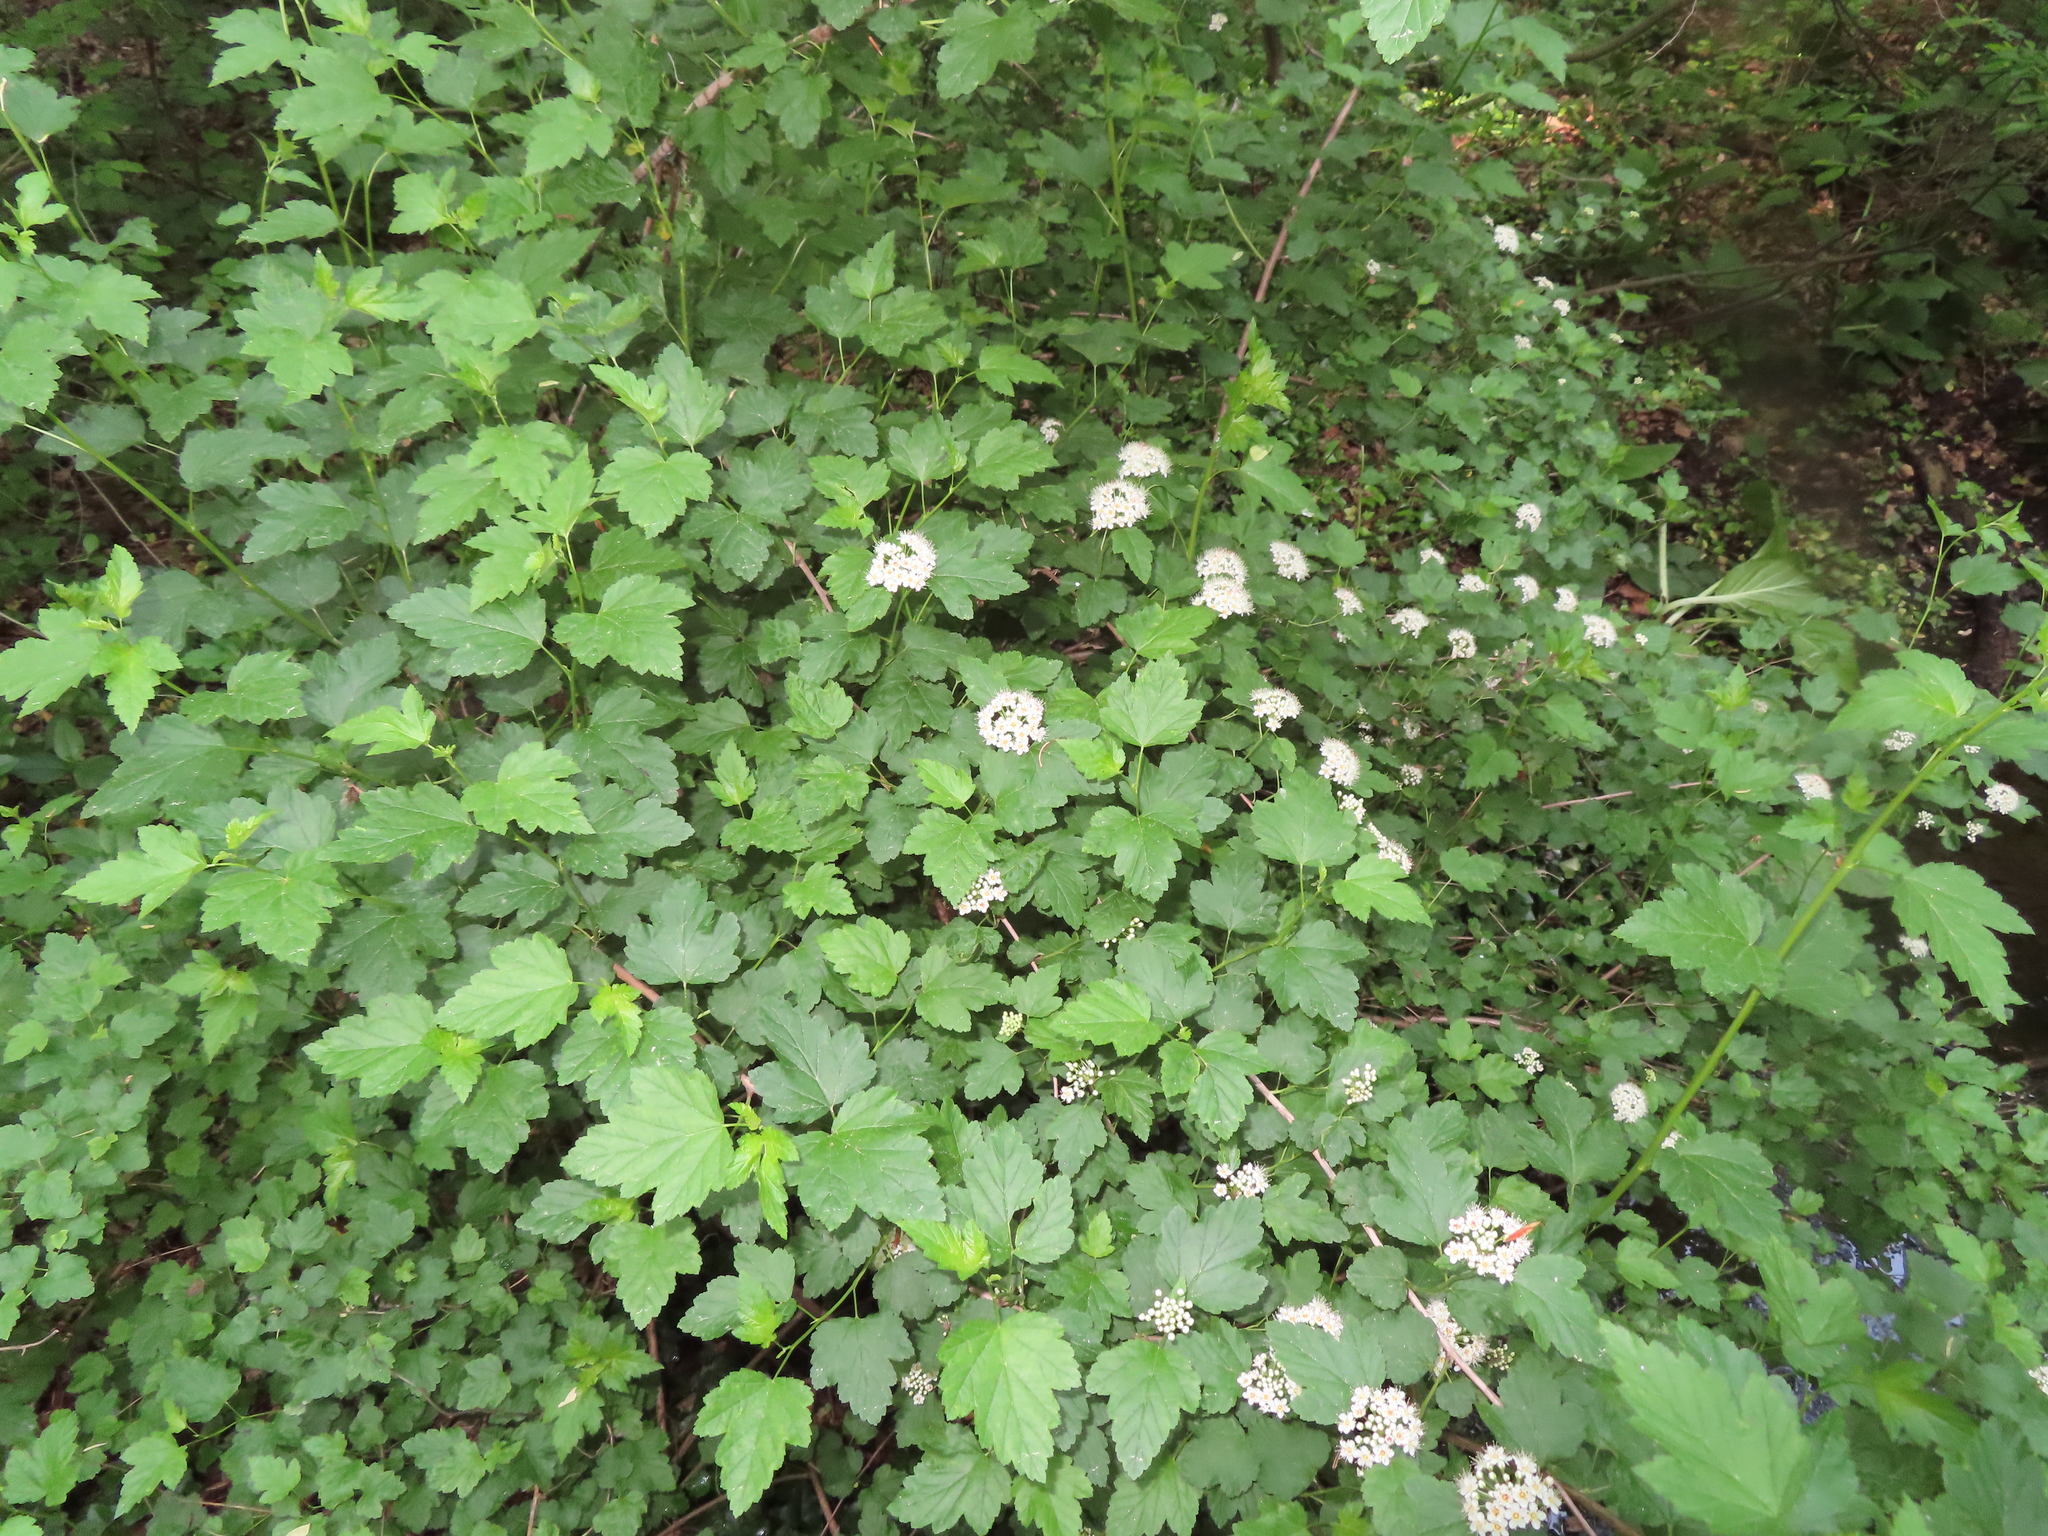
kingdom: Plantae
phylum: Tracheophyta
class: Magnoliopsida
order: Rosales
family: Rosaceae
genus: Physocarpus
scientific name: Physocarpus opulifolius
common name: Ninebark
